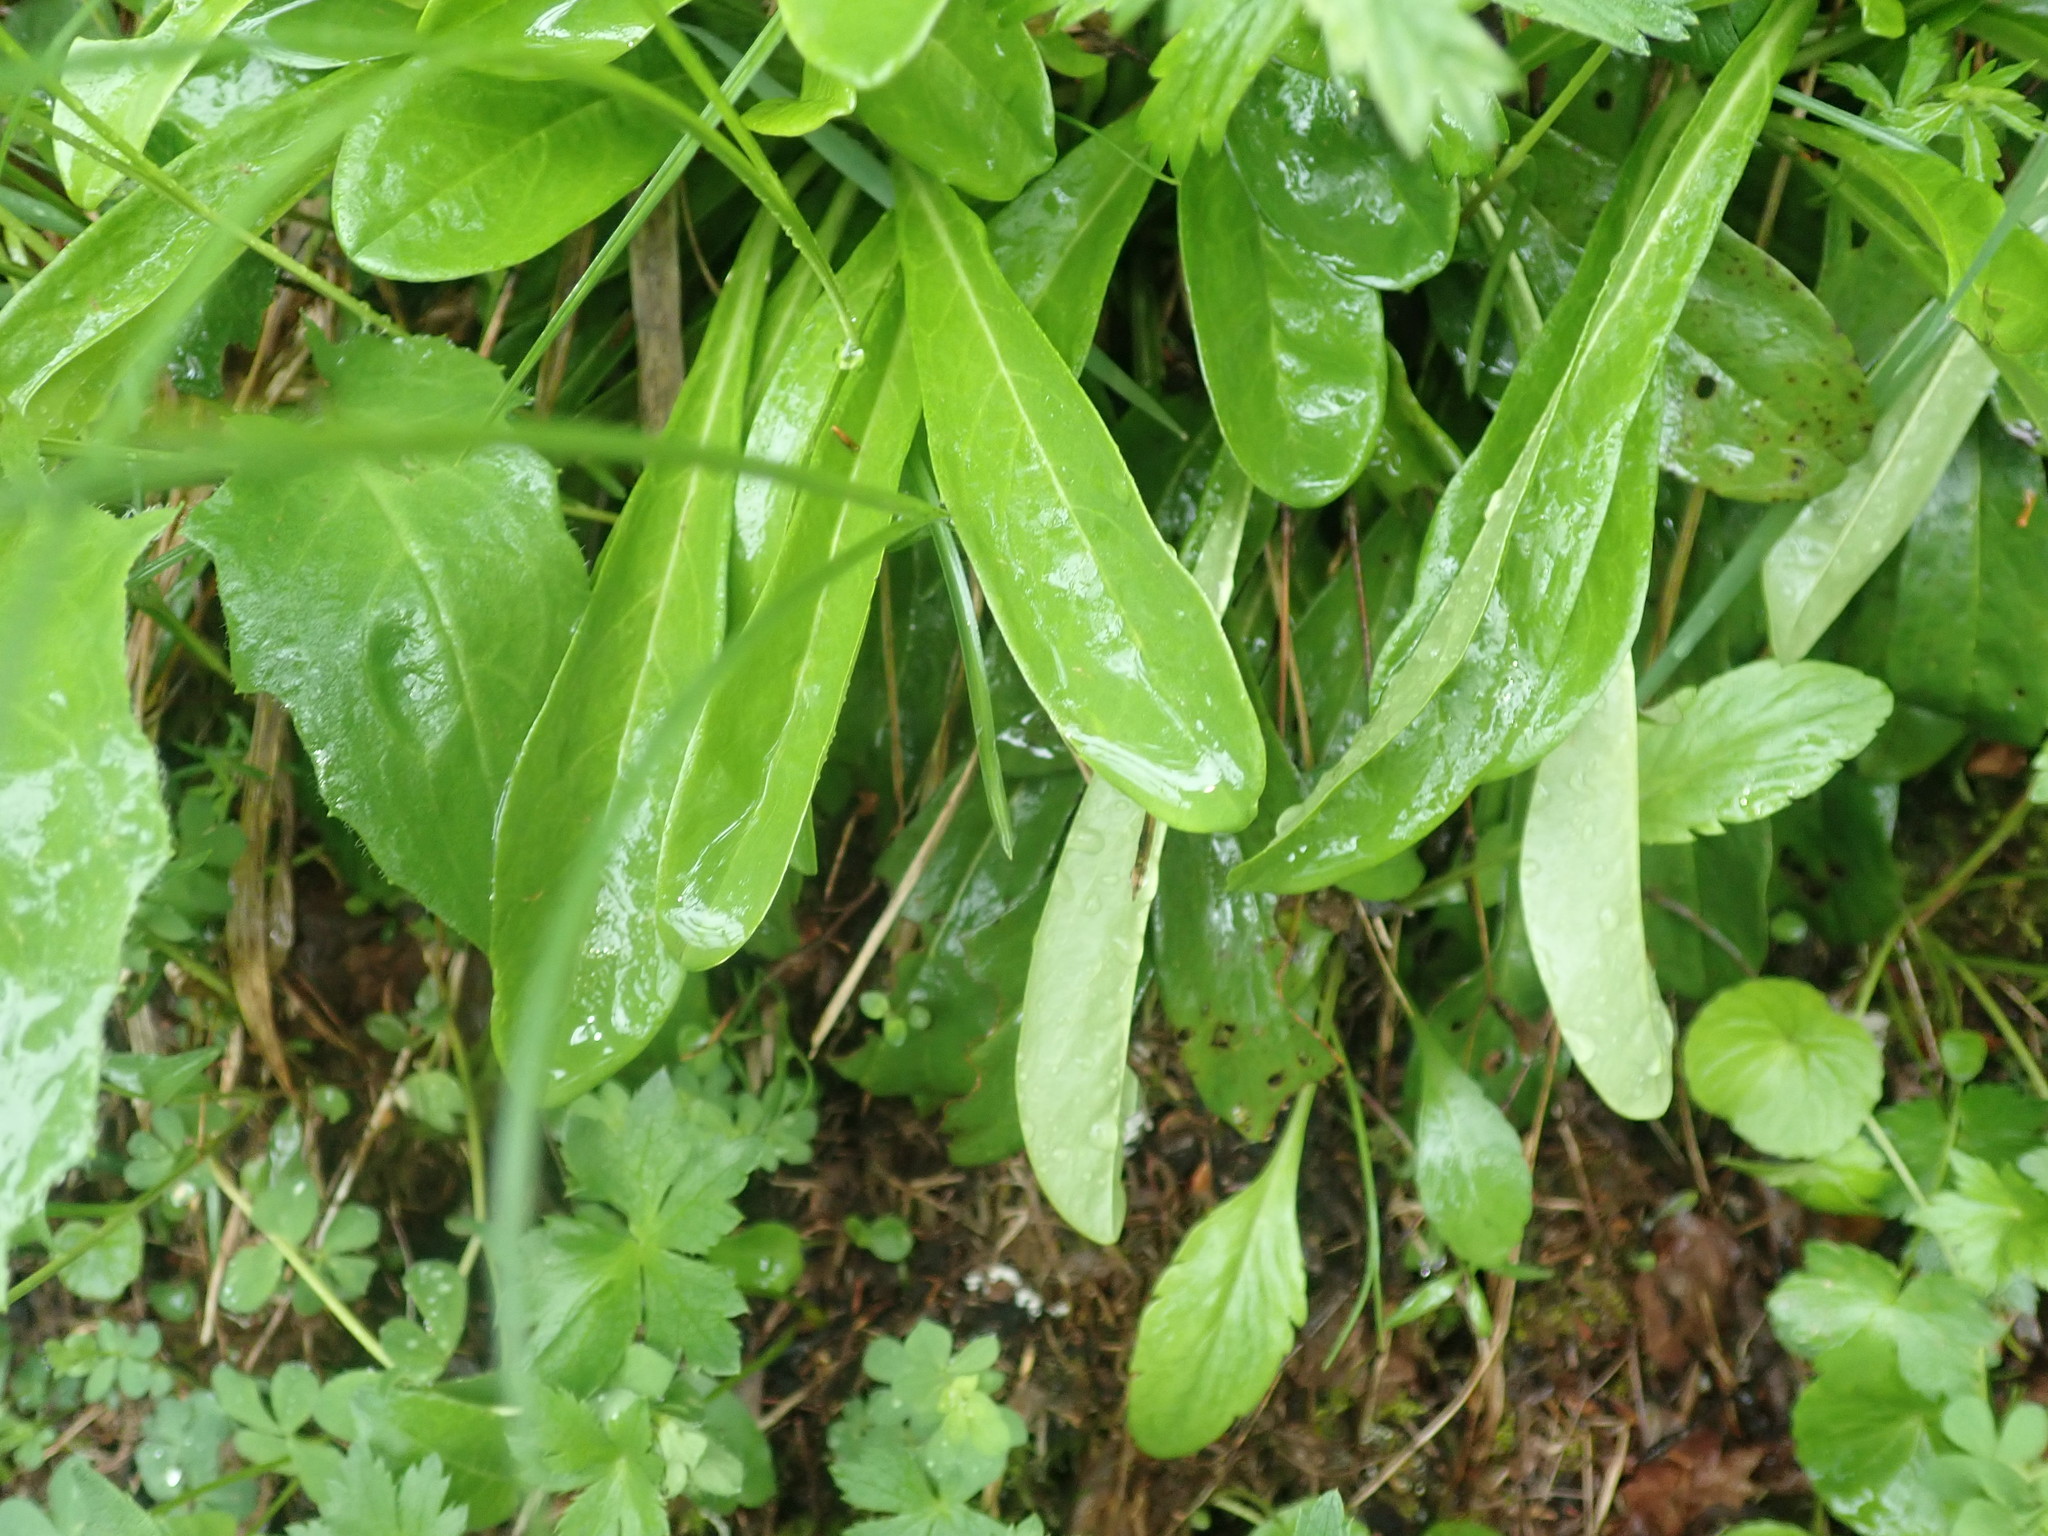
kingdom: Plantae
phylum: Tracheophyta
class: Magnoliopsida
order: Lamiales
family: Plantaginaceae
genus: Globularia
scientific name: Globularia nudicaulis
